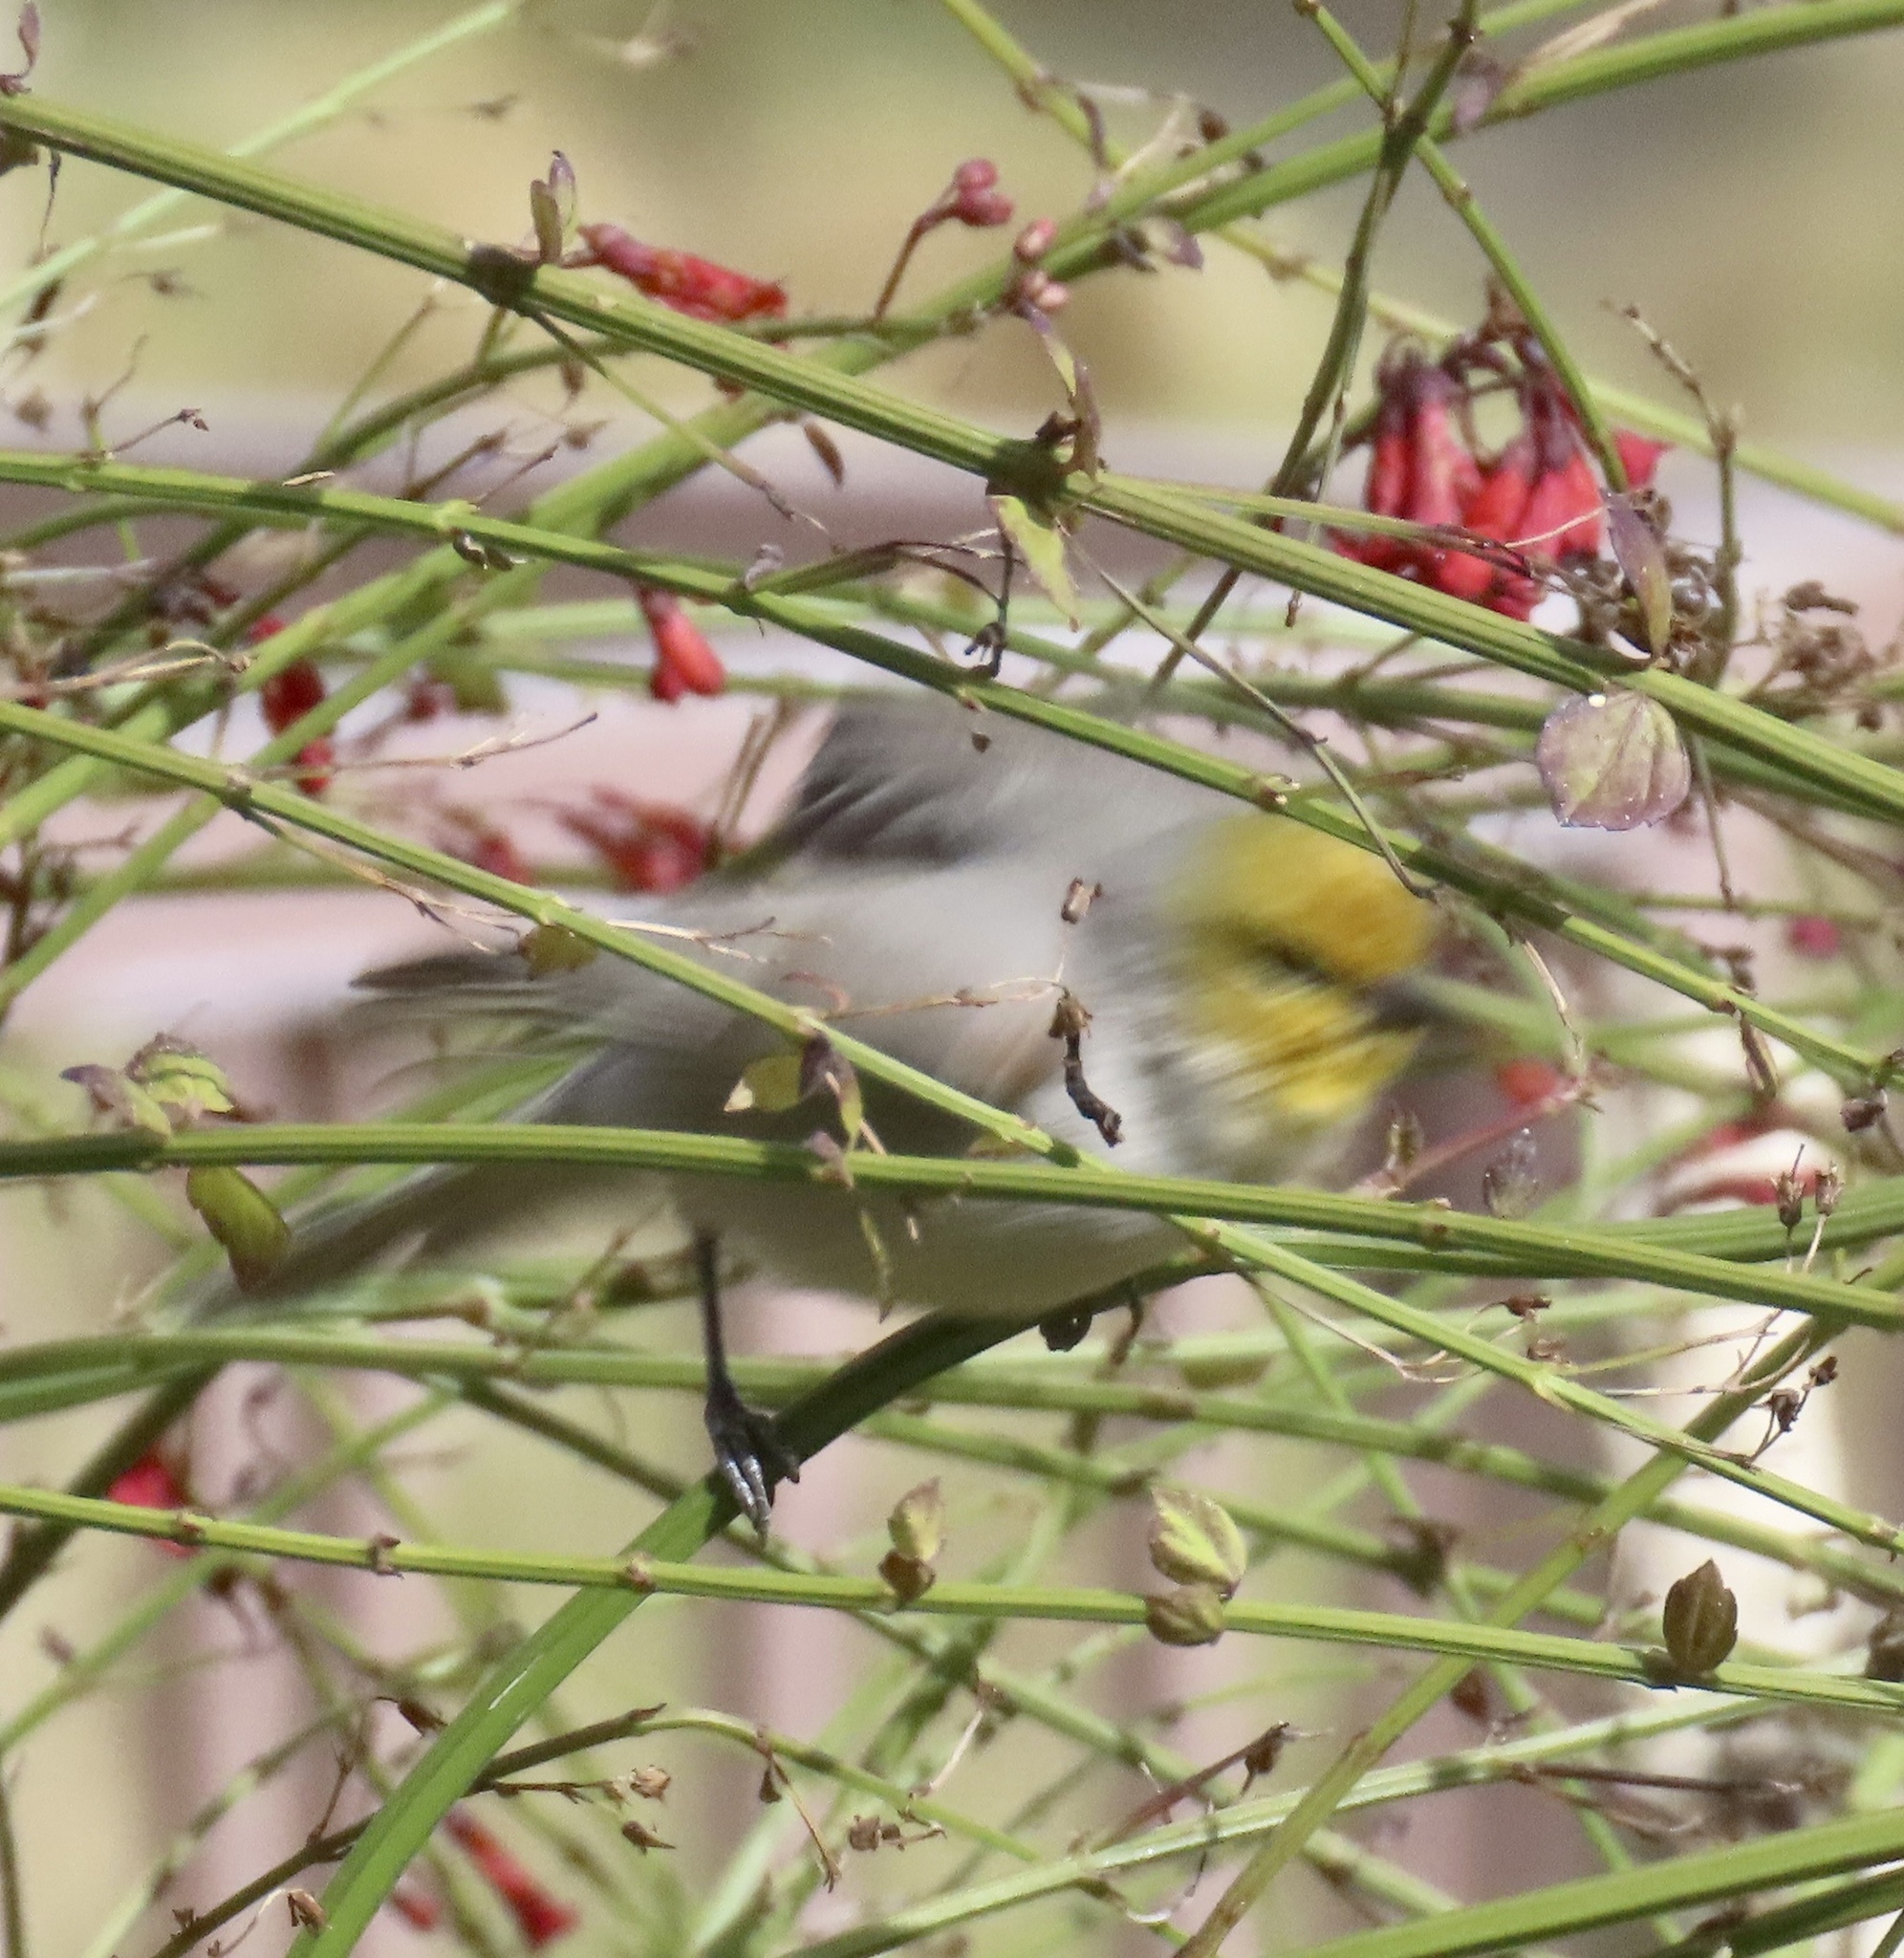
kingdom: Animalia
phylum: Chordata
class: Aves
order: Passeriformes
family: Remizidae
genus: Auriparus
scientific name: Auriparus flaviceps
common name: Verdin
